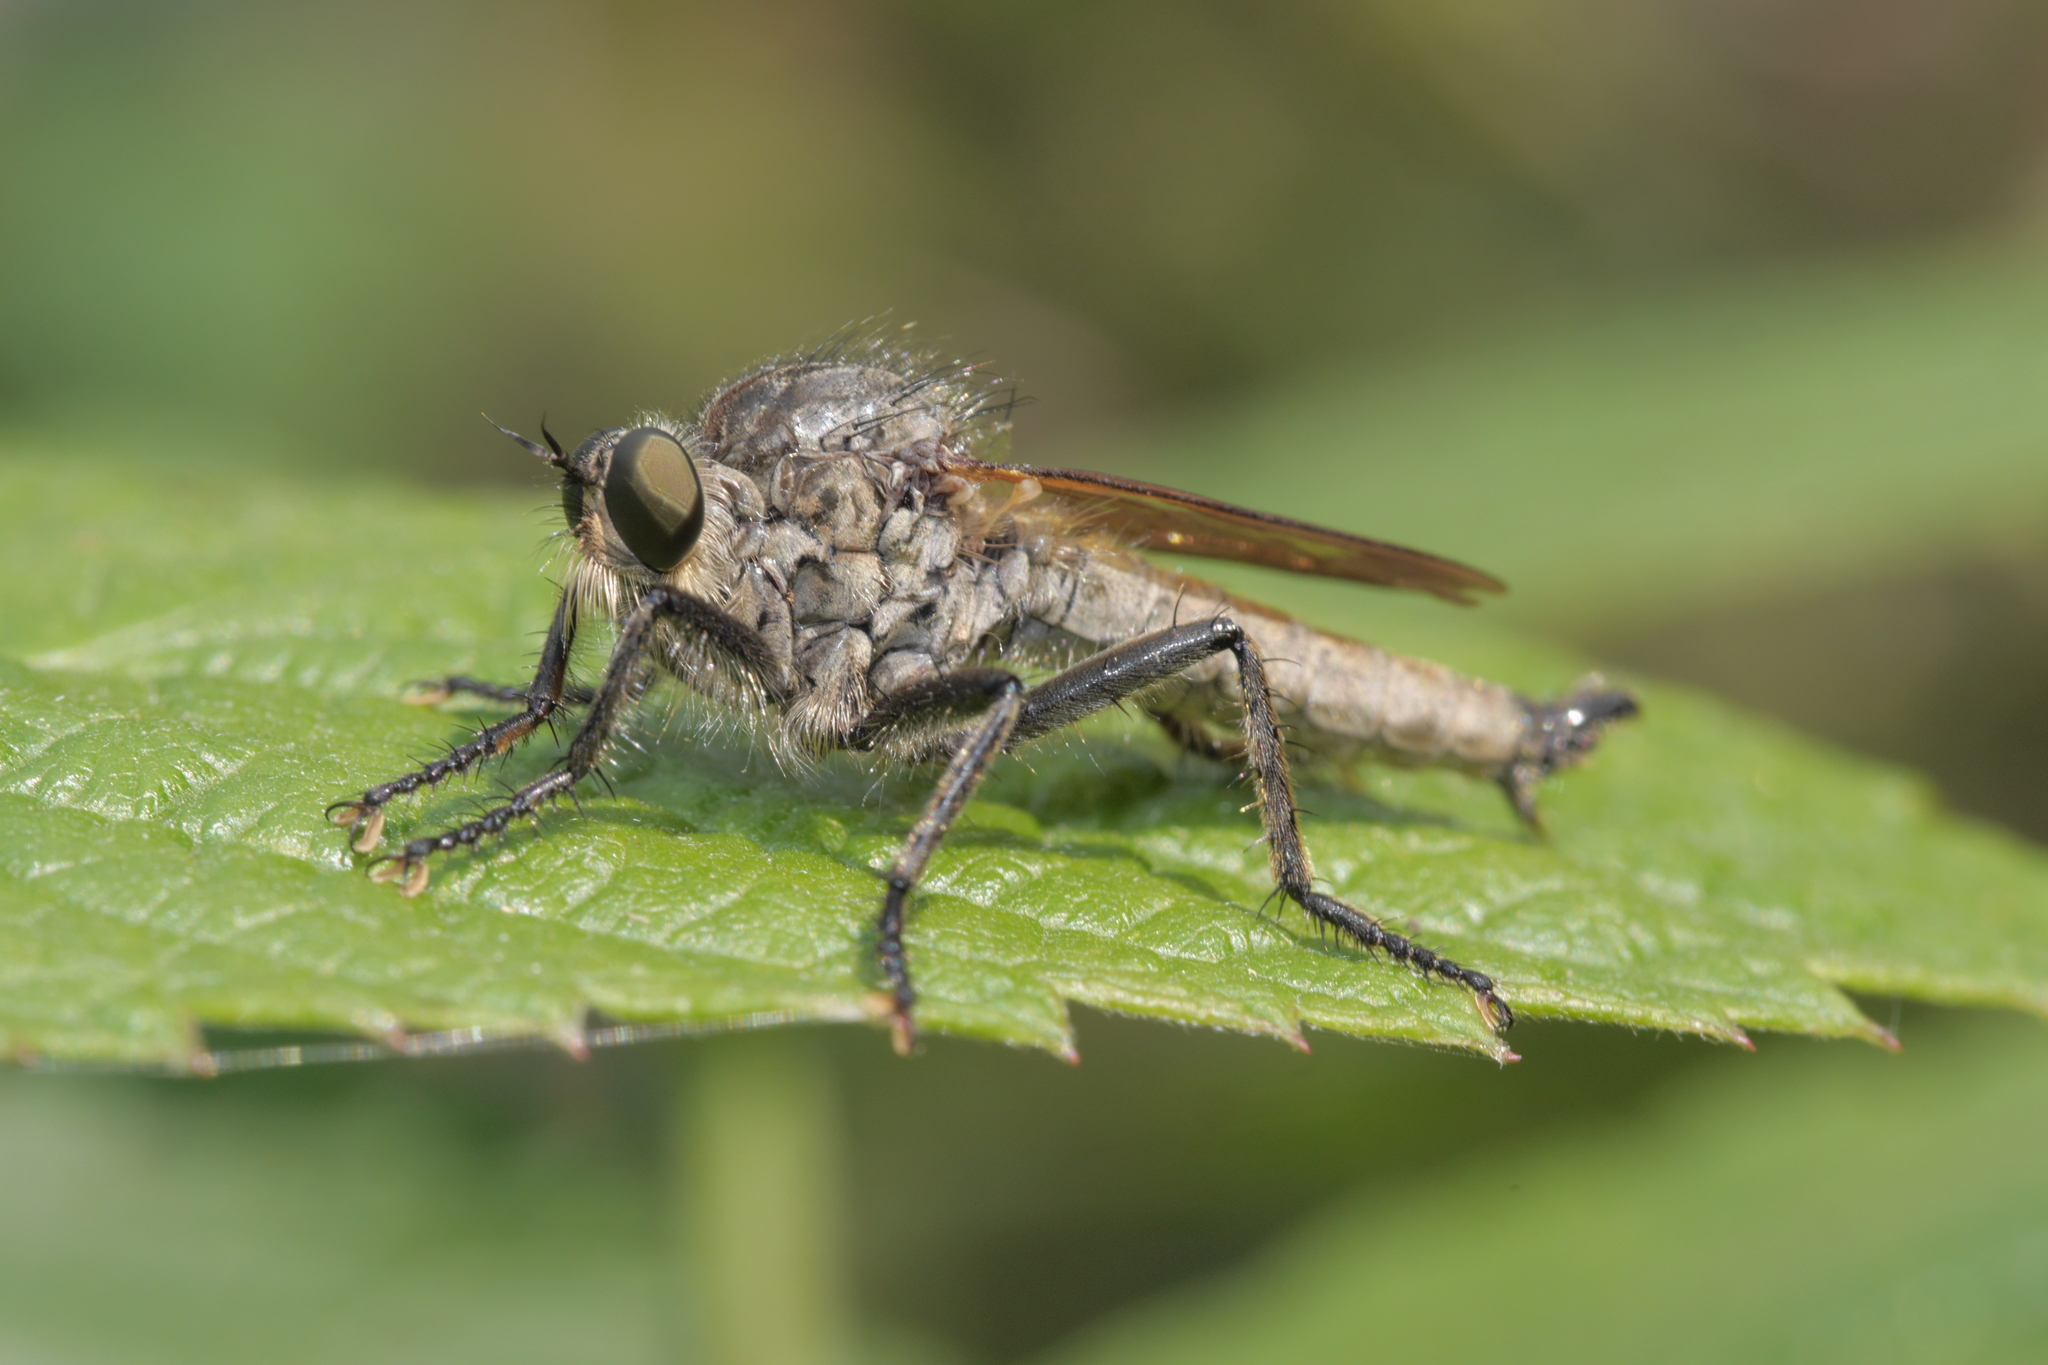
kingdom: Animalia
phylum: Arthropoda
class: Insecta
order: Diptera
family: Asilidae
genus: Eutolmus
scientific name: Eutolmus rufibarbis
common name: Golden-tabbed robberfly
